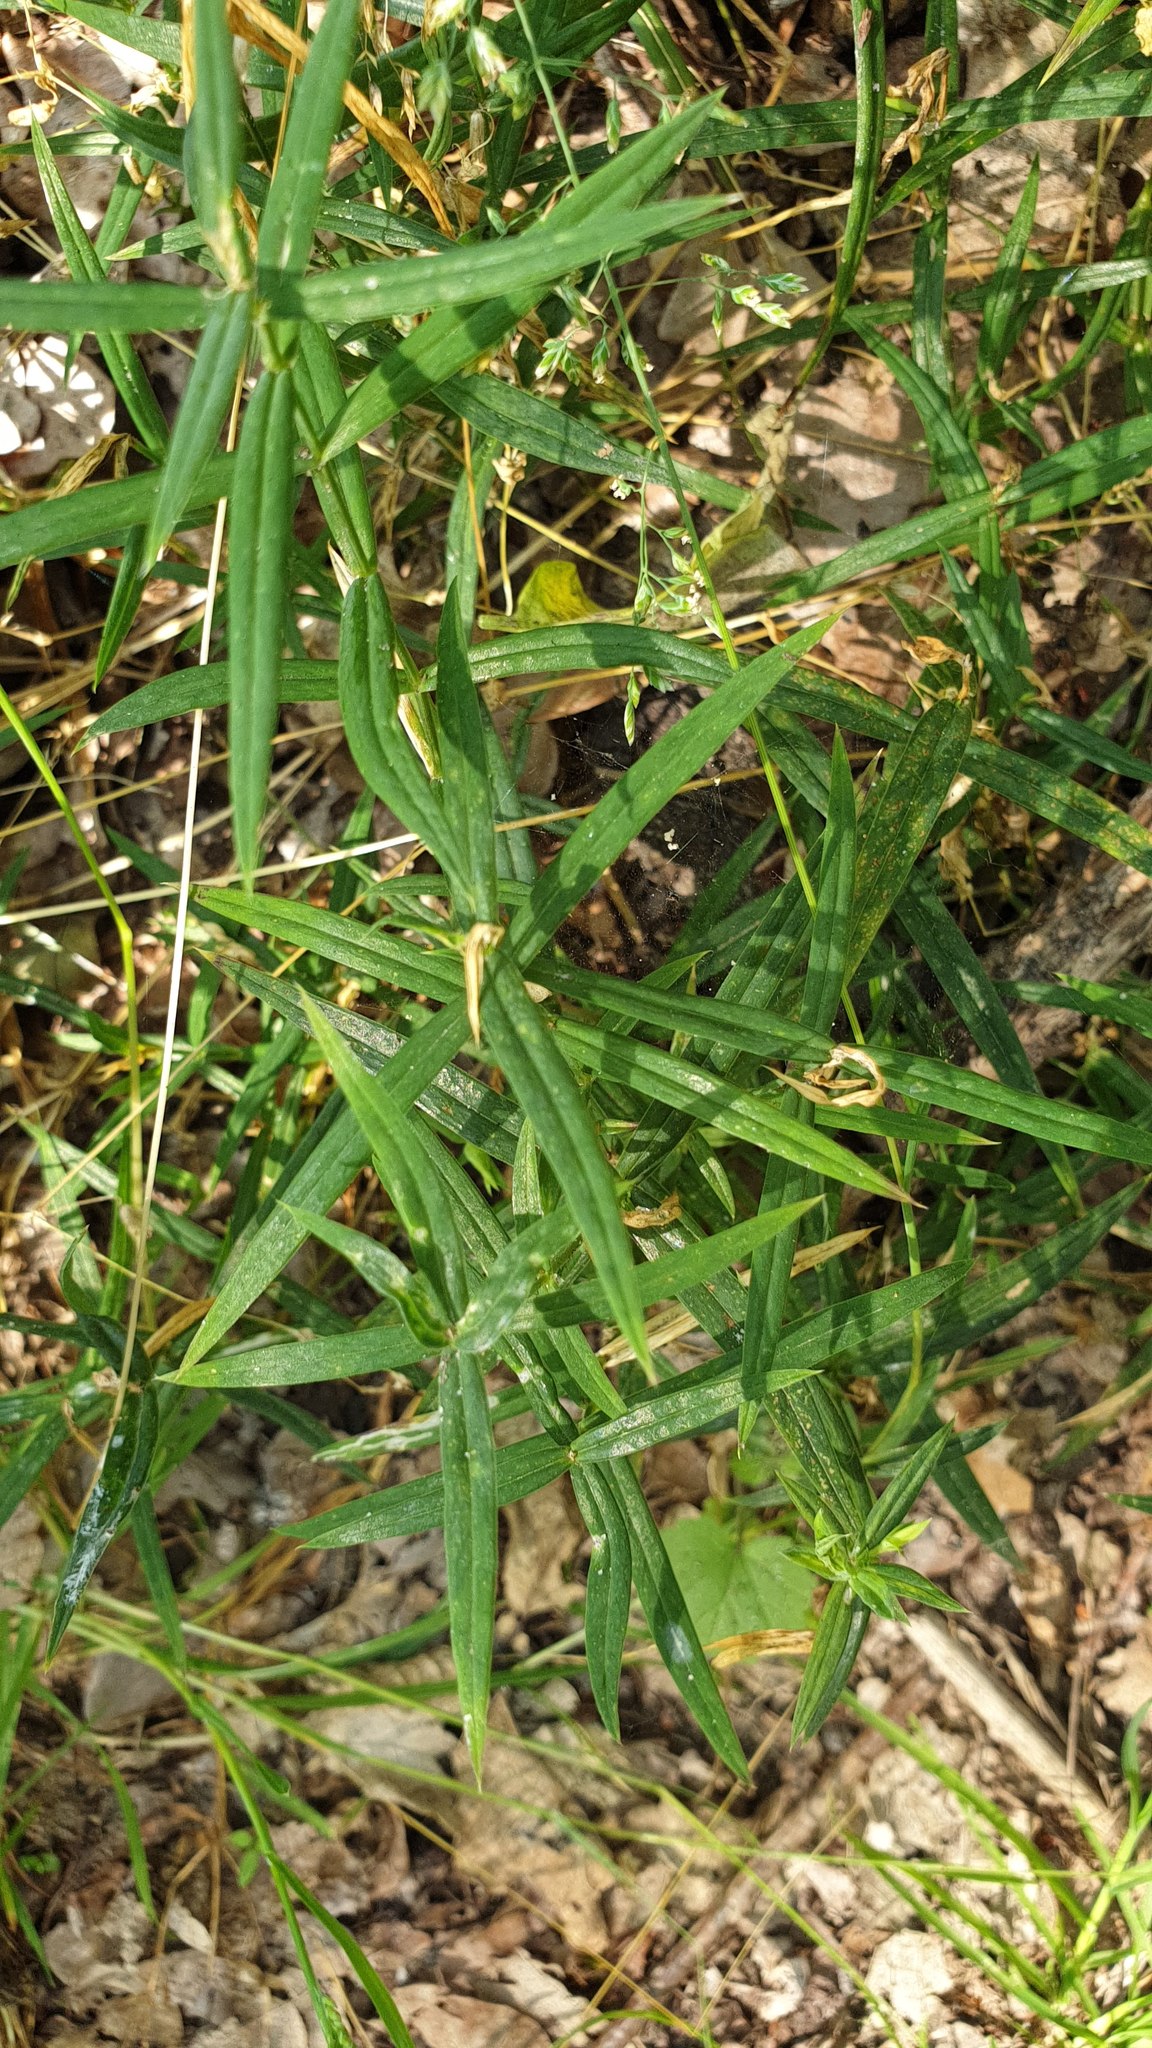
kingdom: Plantae
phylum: Tracheophyta
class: Magnoliopsida
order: Caryophyllales
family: Caryophyllaceae
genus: Rabelera
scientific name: Rabelera holostea
